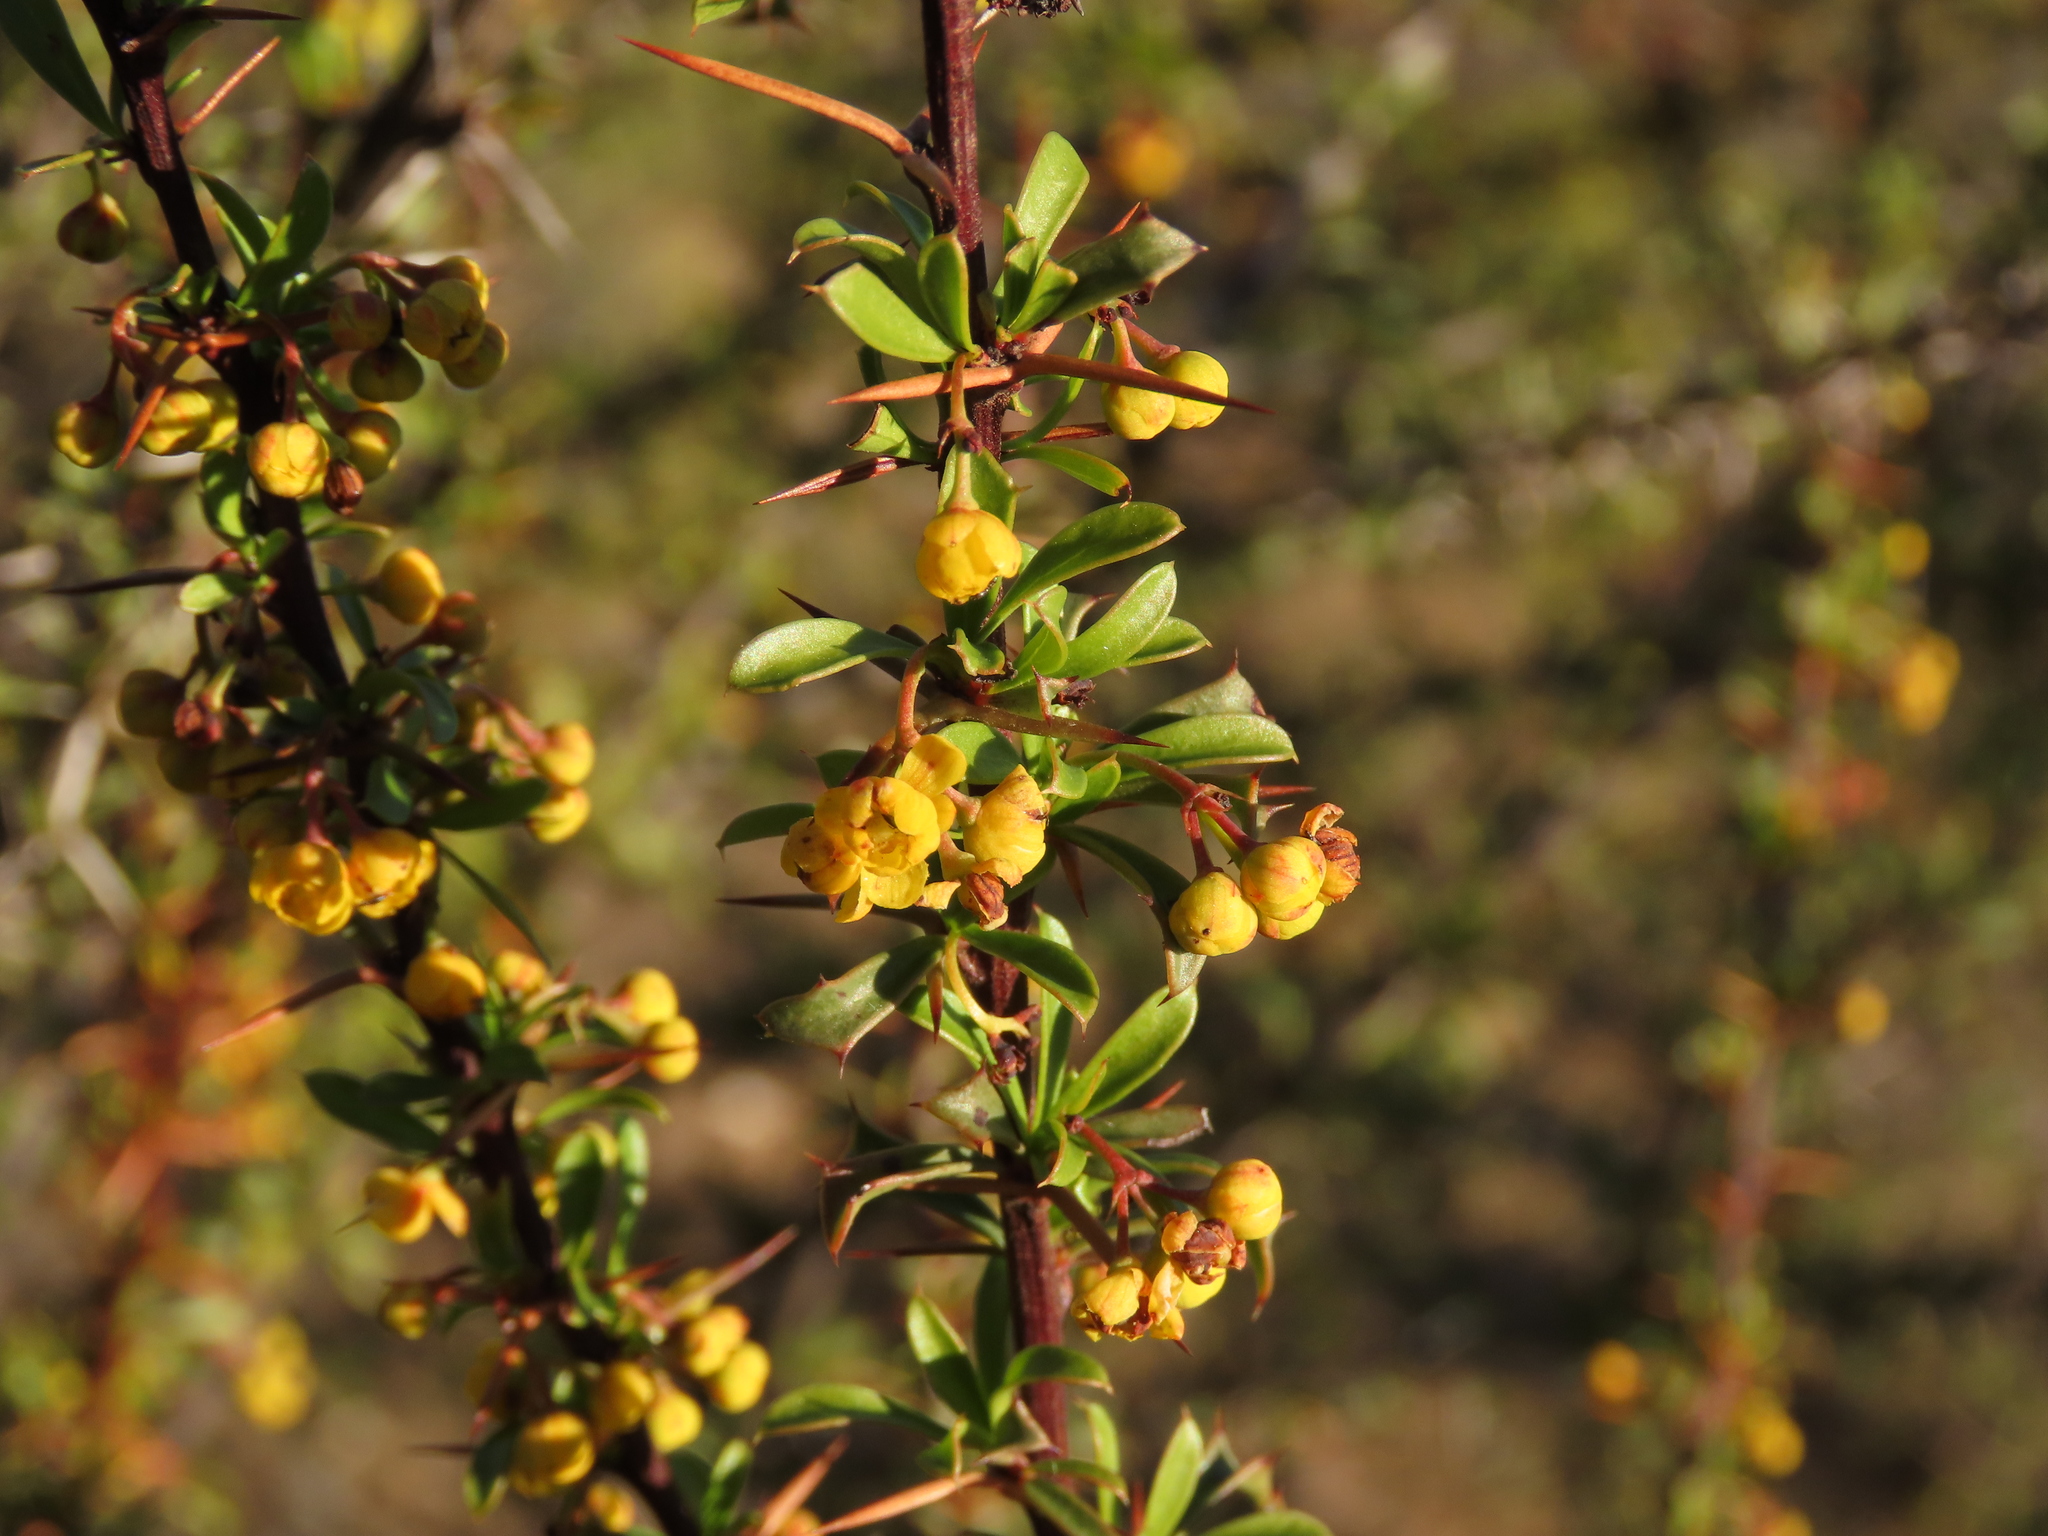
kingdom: Plantae
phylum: Tracheophyta
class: Magnoliopsida
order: Ranunculales
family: Berberidaceae
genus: Berberis
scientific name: Berberis glomerata
